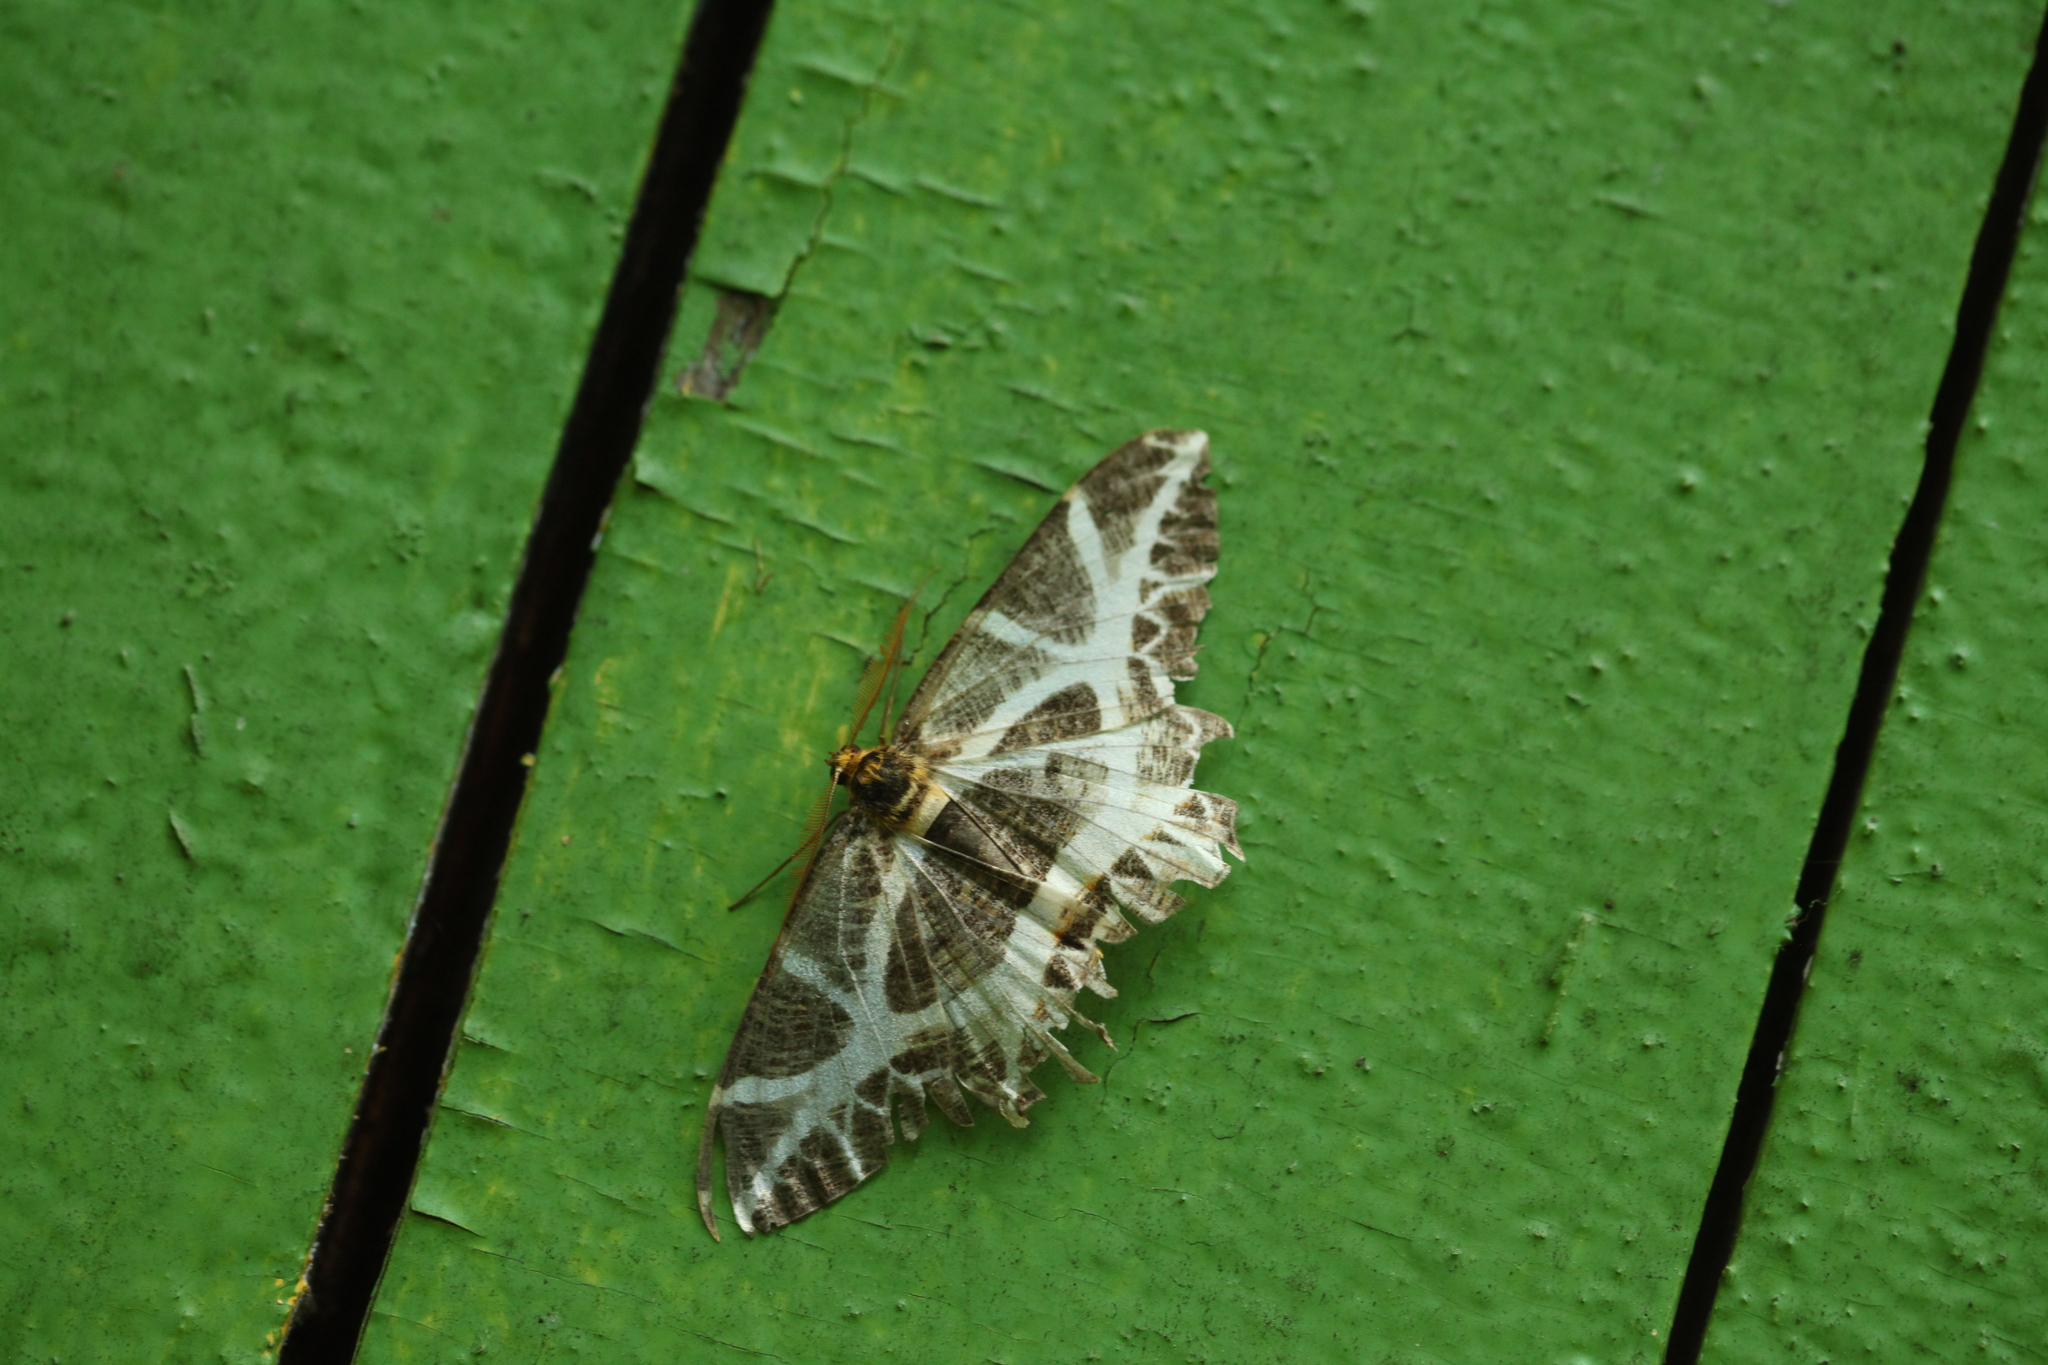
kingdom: Animalia
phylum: Arthropoda
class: Insecta
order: Lepidoptera
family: Geometridae
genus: Mesastrape
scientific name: Mesastrape fulguraria
